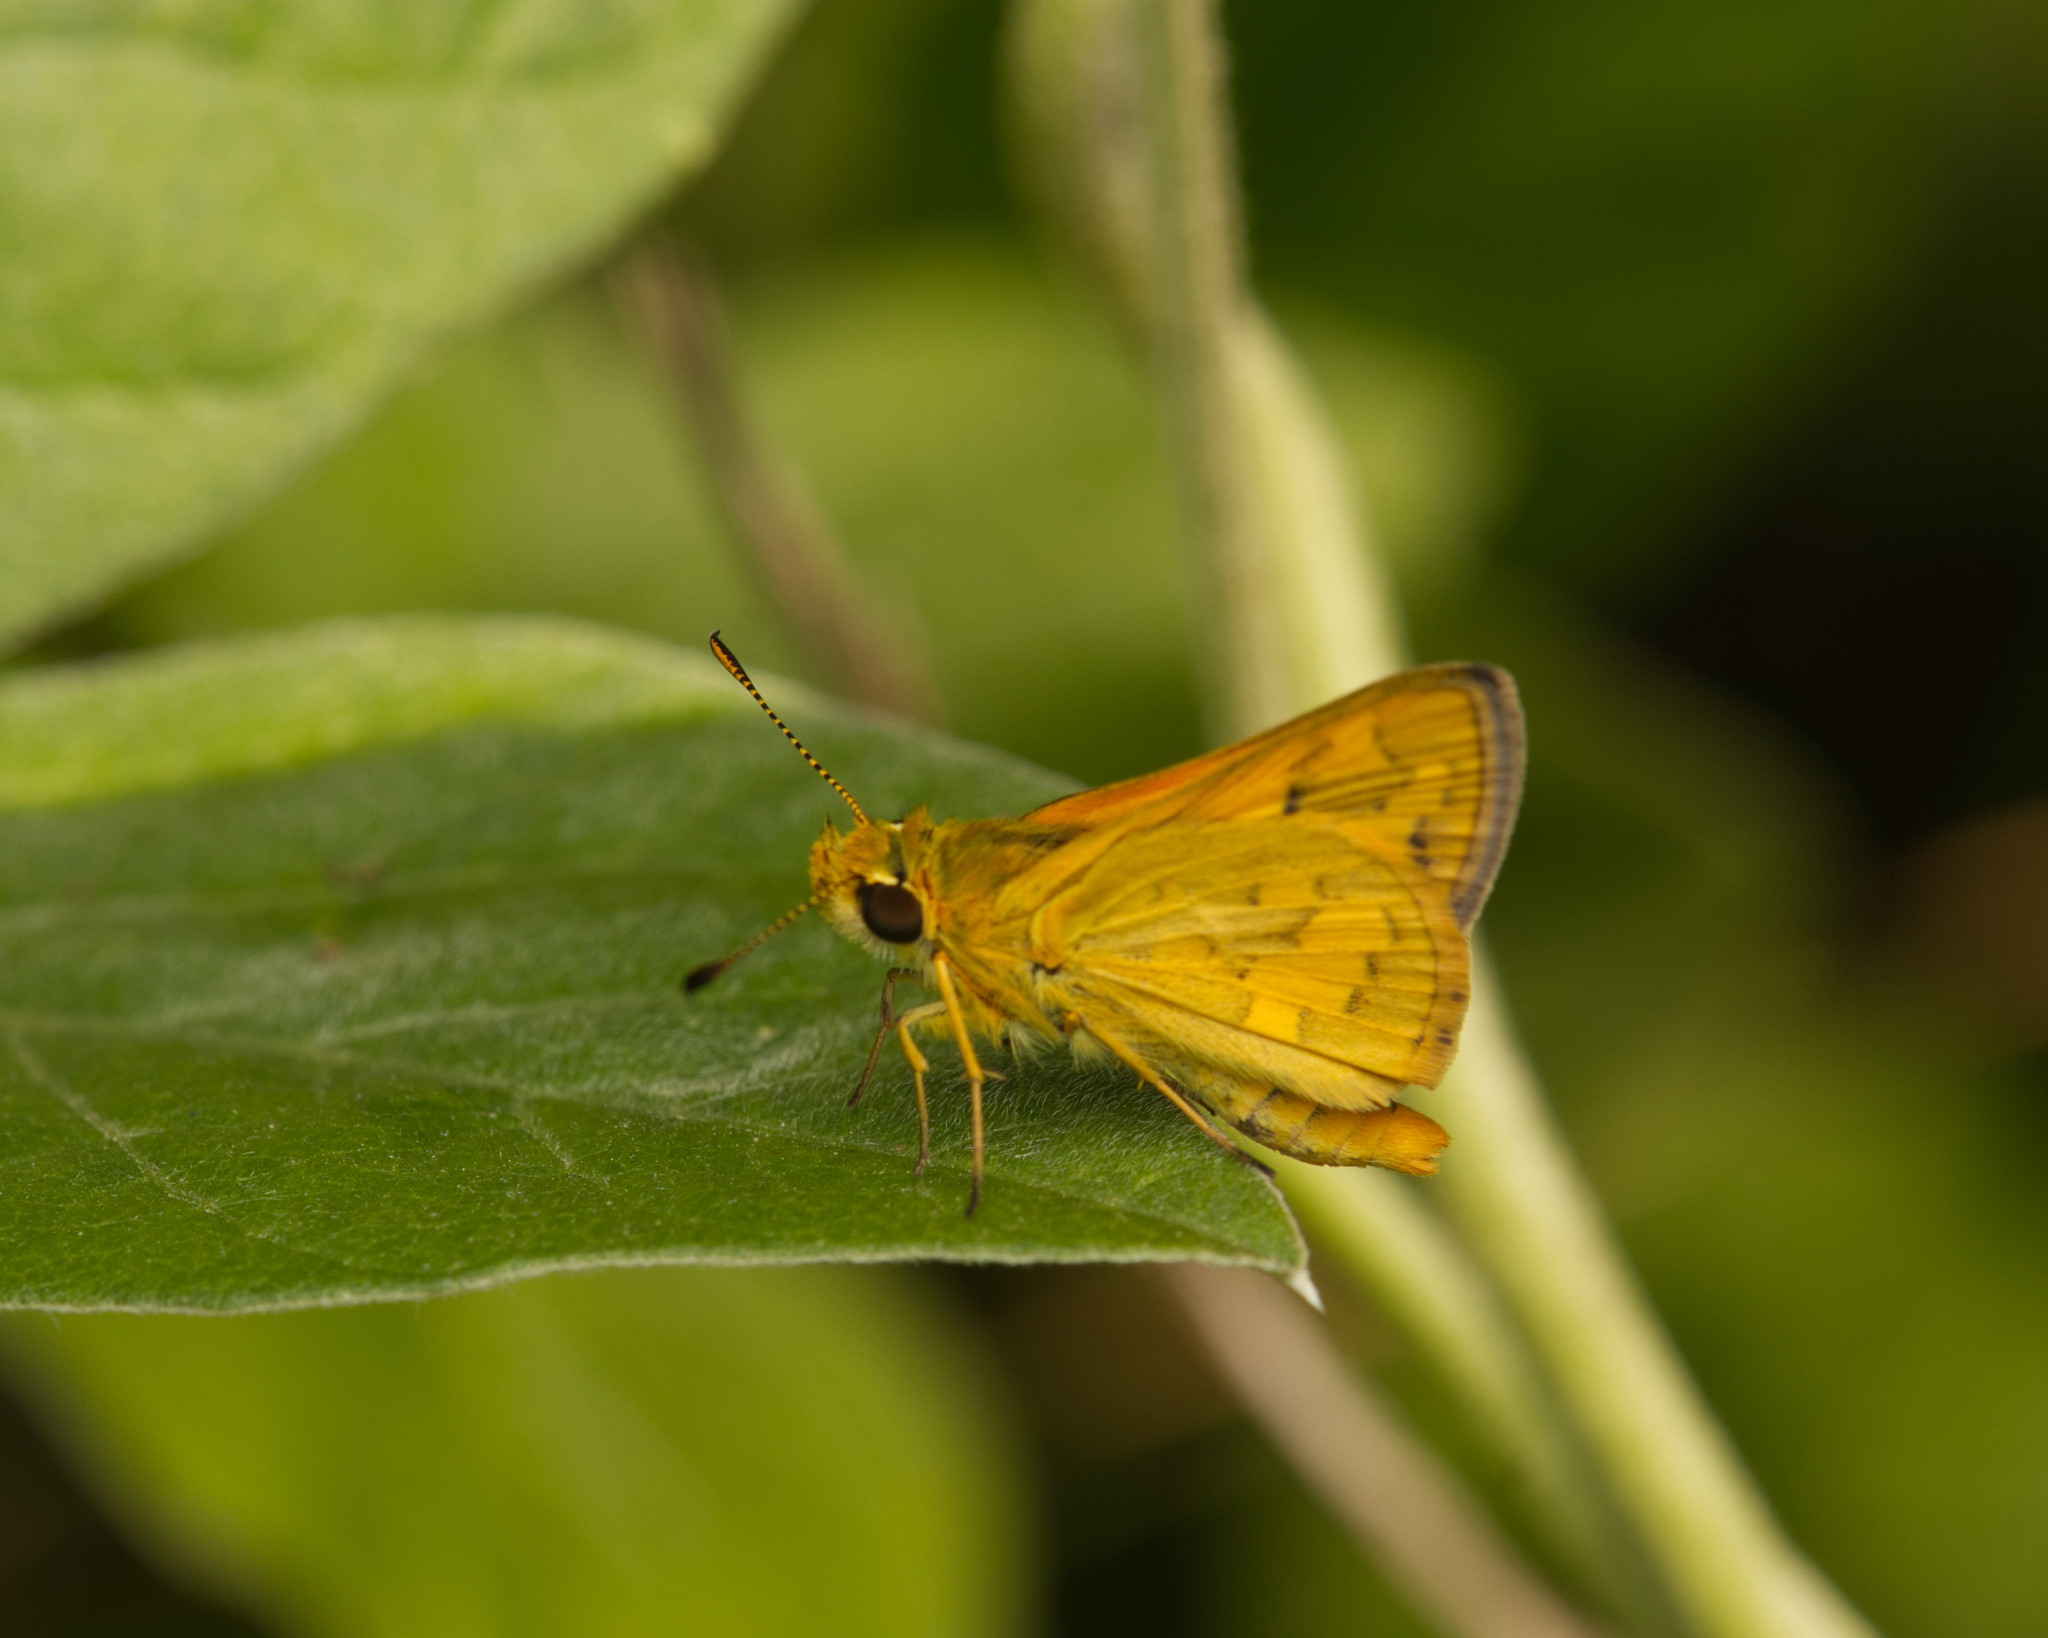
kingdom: Animalia
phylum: Arthropoda
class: Insecta
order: Lepidoptera
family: Hesperiidae
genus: Ocybadistes
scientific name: Ocybadistes walkeri
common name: Yellow-banded dart
